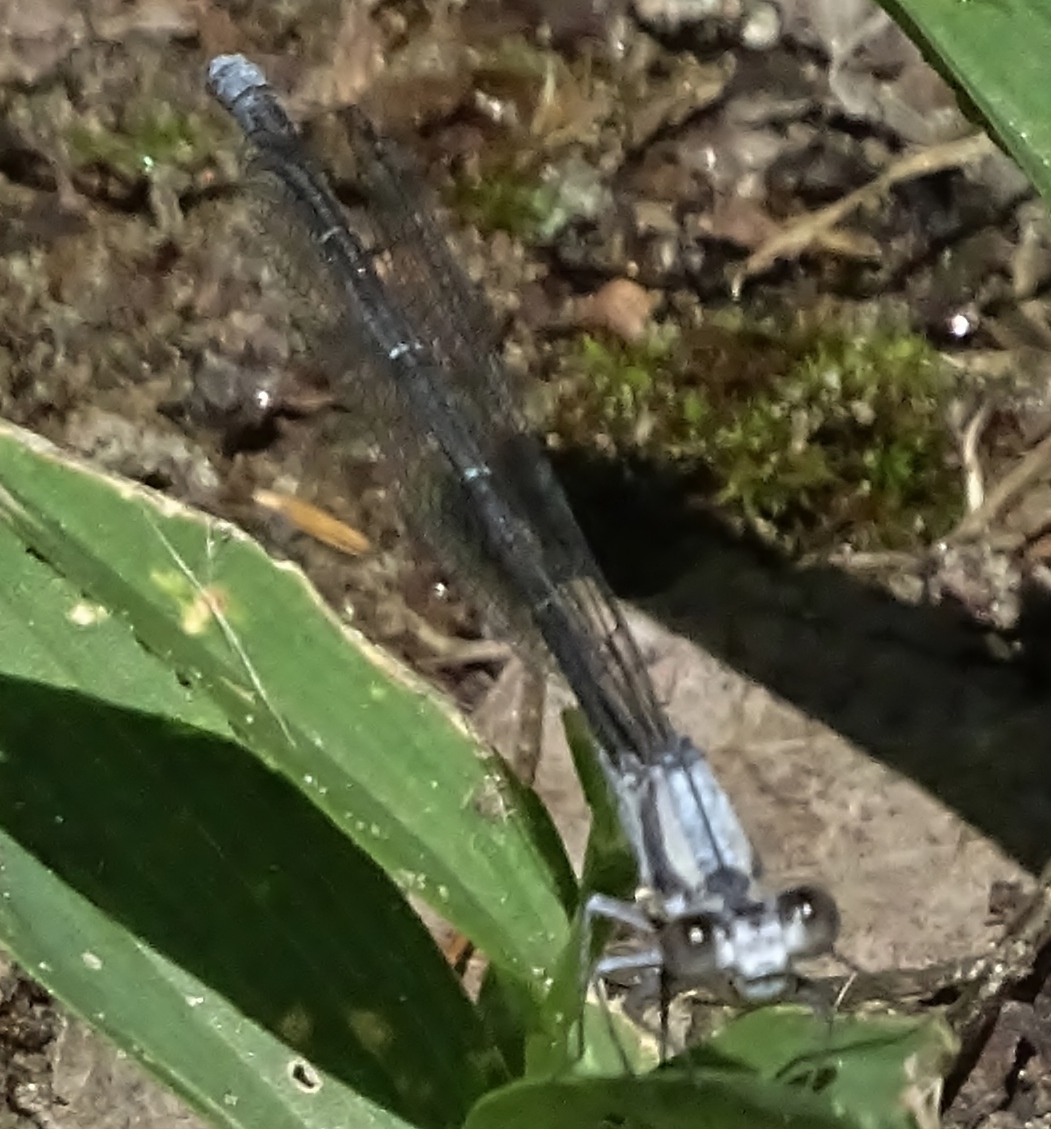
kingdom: Animalia
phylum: Arthropoda
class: Insecta
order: Odonata
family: Coenagrionidae
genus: Argia
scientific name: Argia moesta
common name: Powdered dancer
